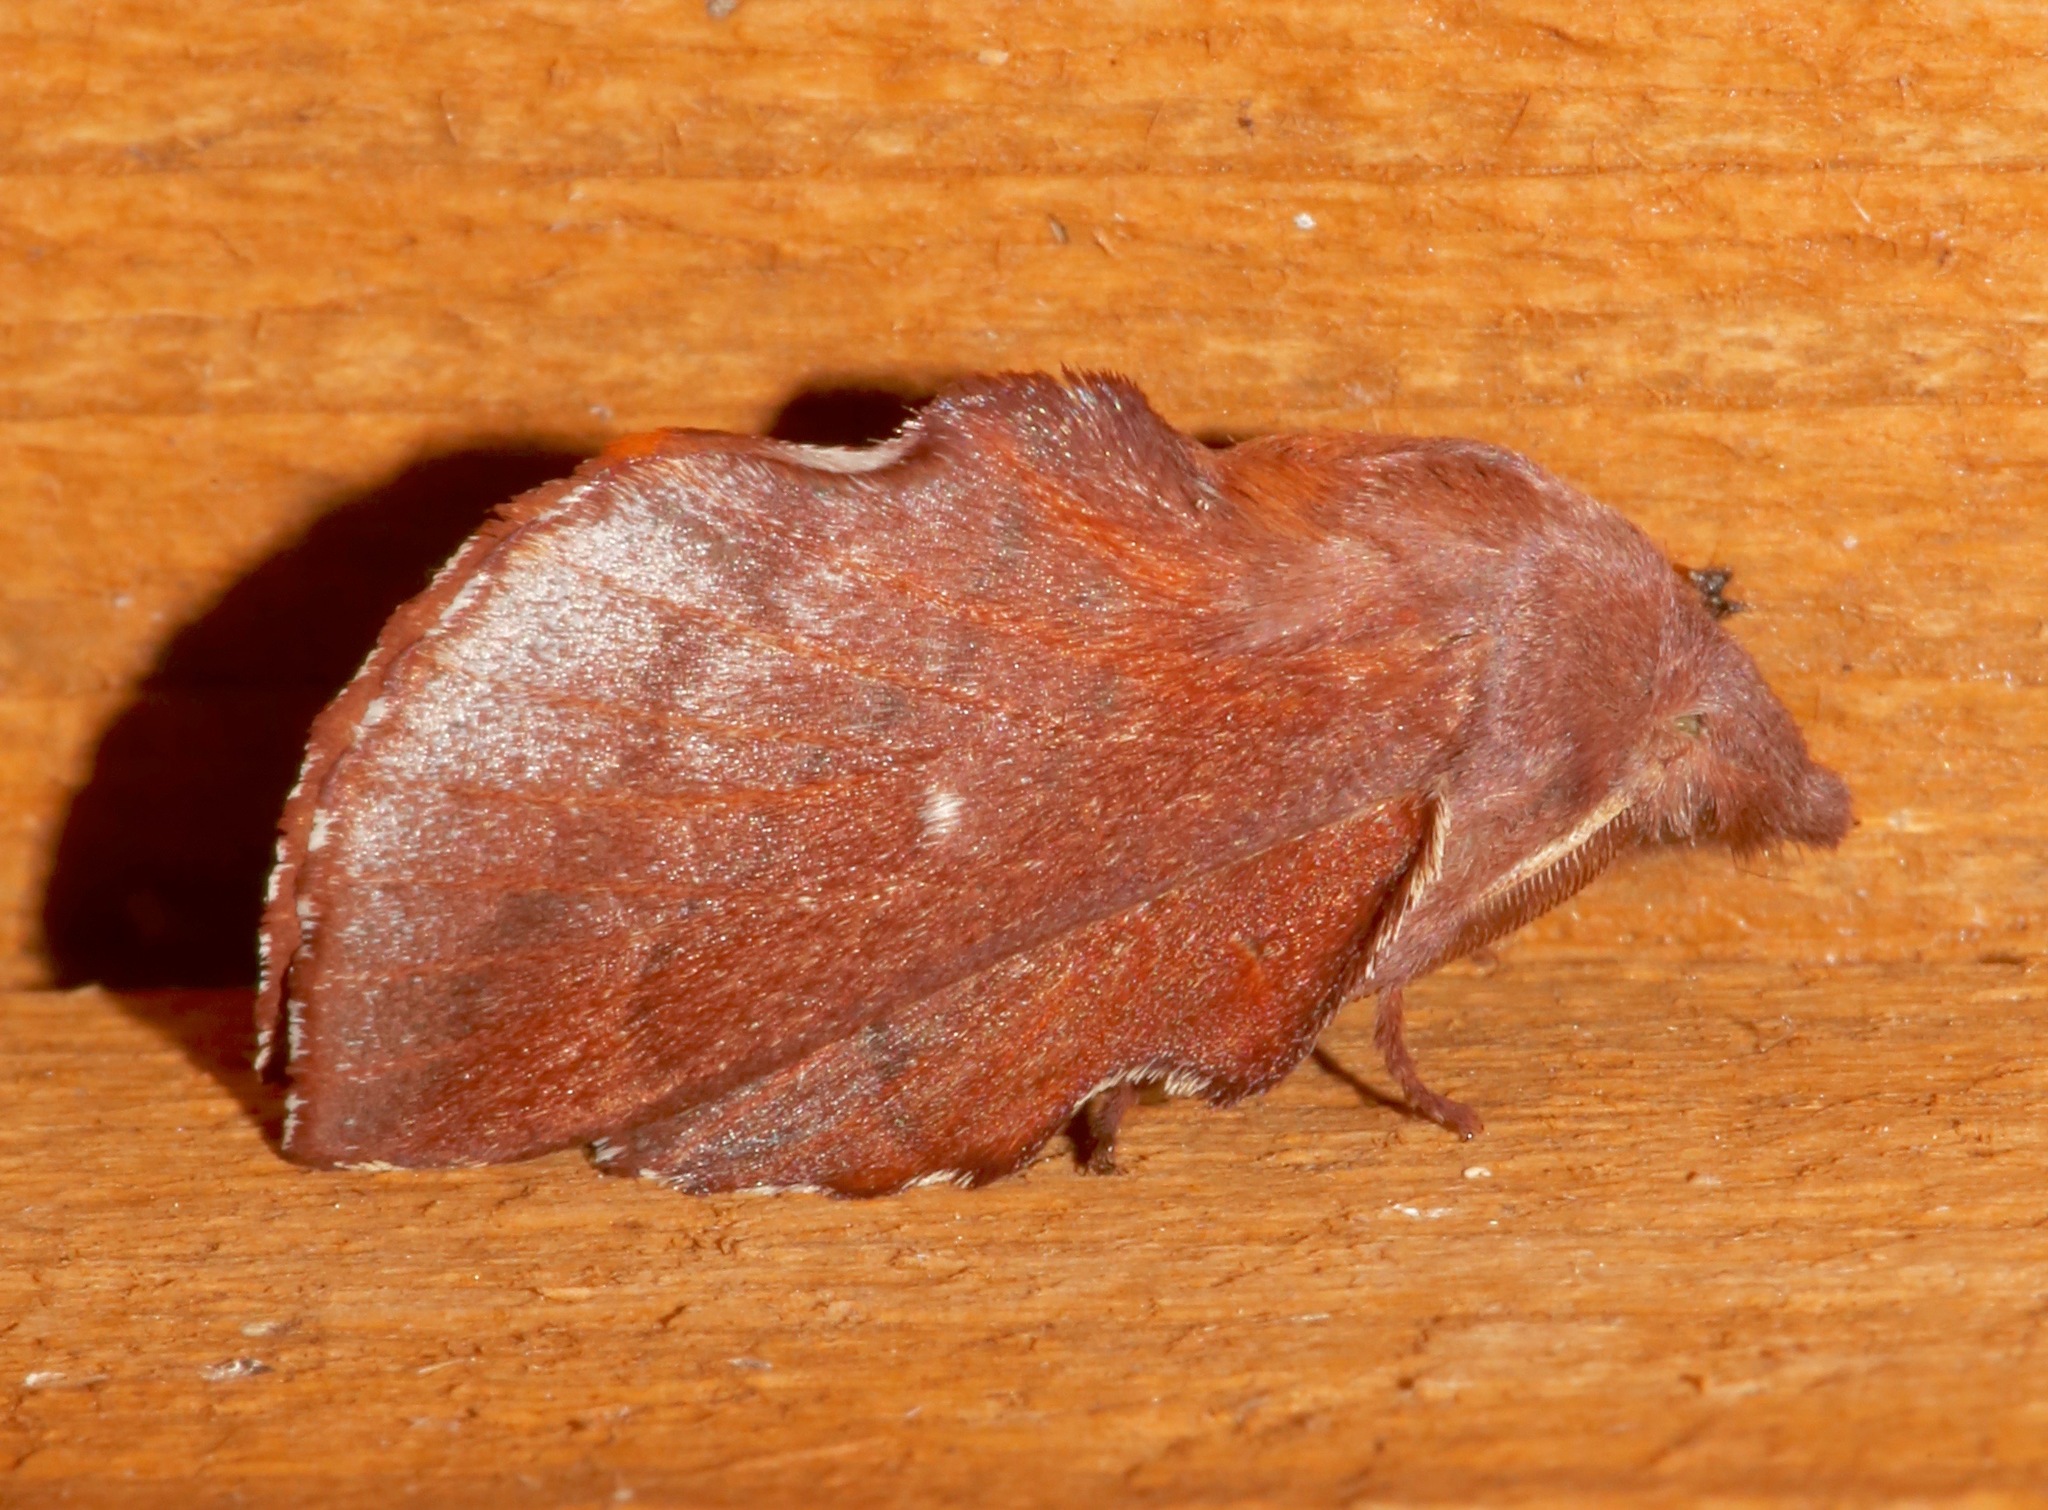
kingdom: Animalia
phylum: Arthropoda
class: Insecta
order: Lepidoptera
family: Lasiocampidae
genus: Phyllodesma
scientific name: Phyllodesma americana
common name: American lappet moth
